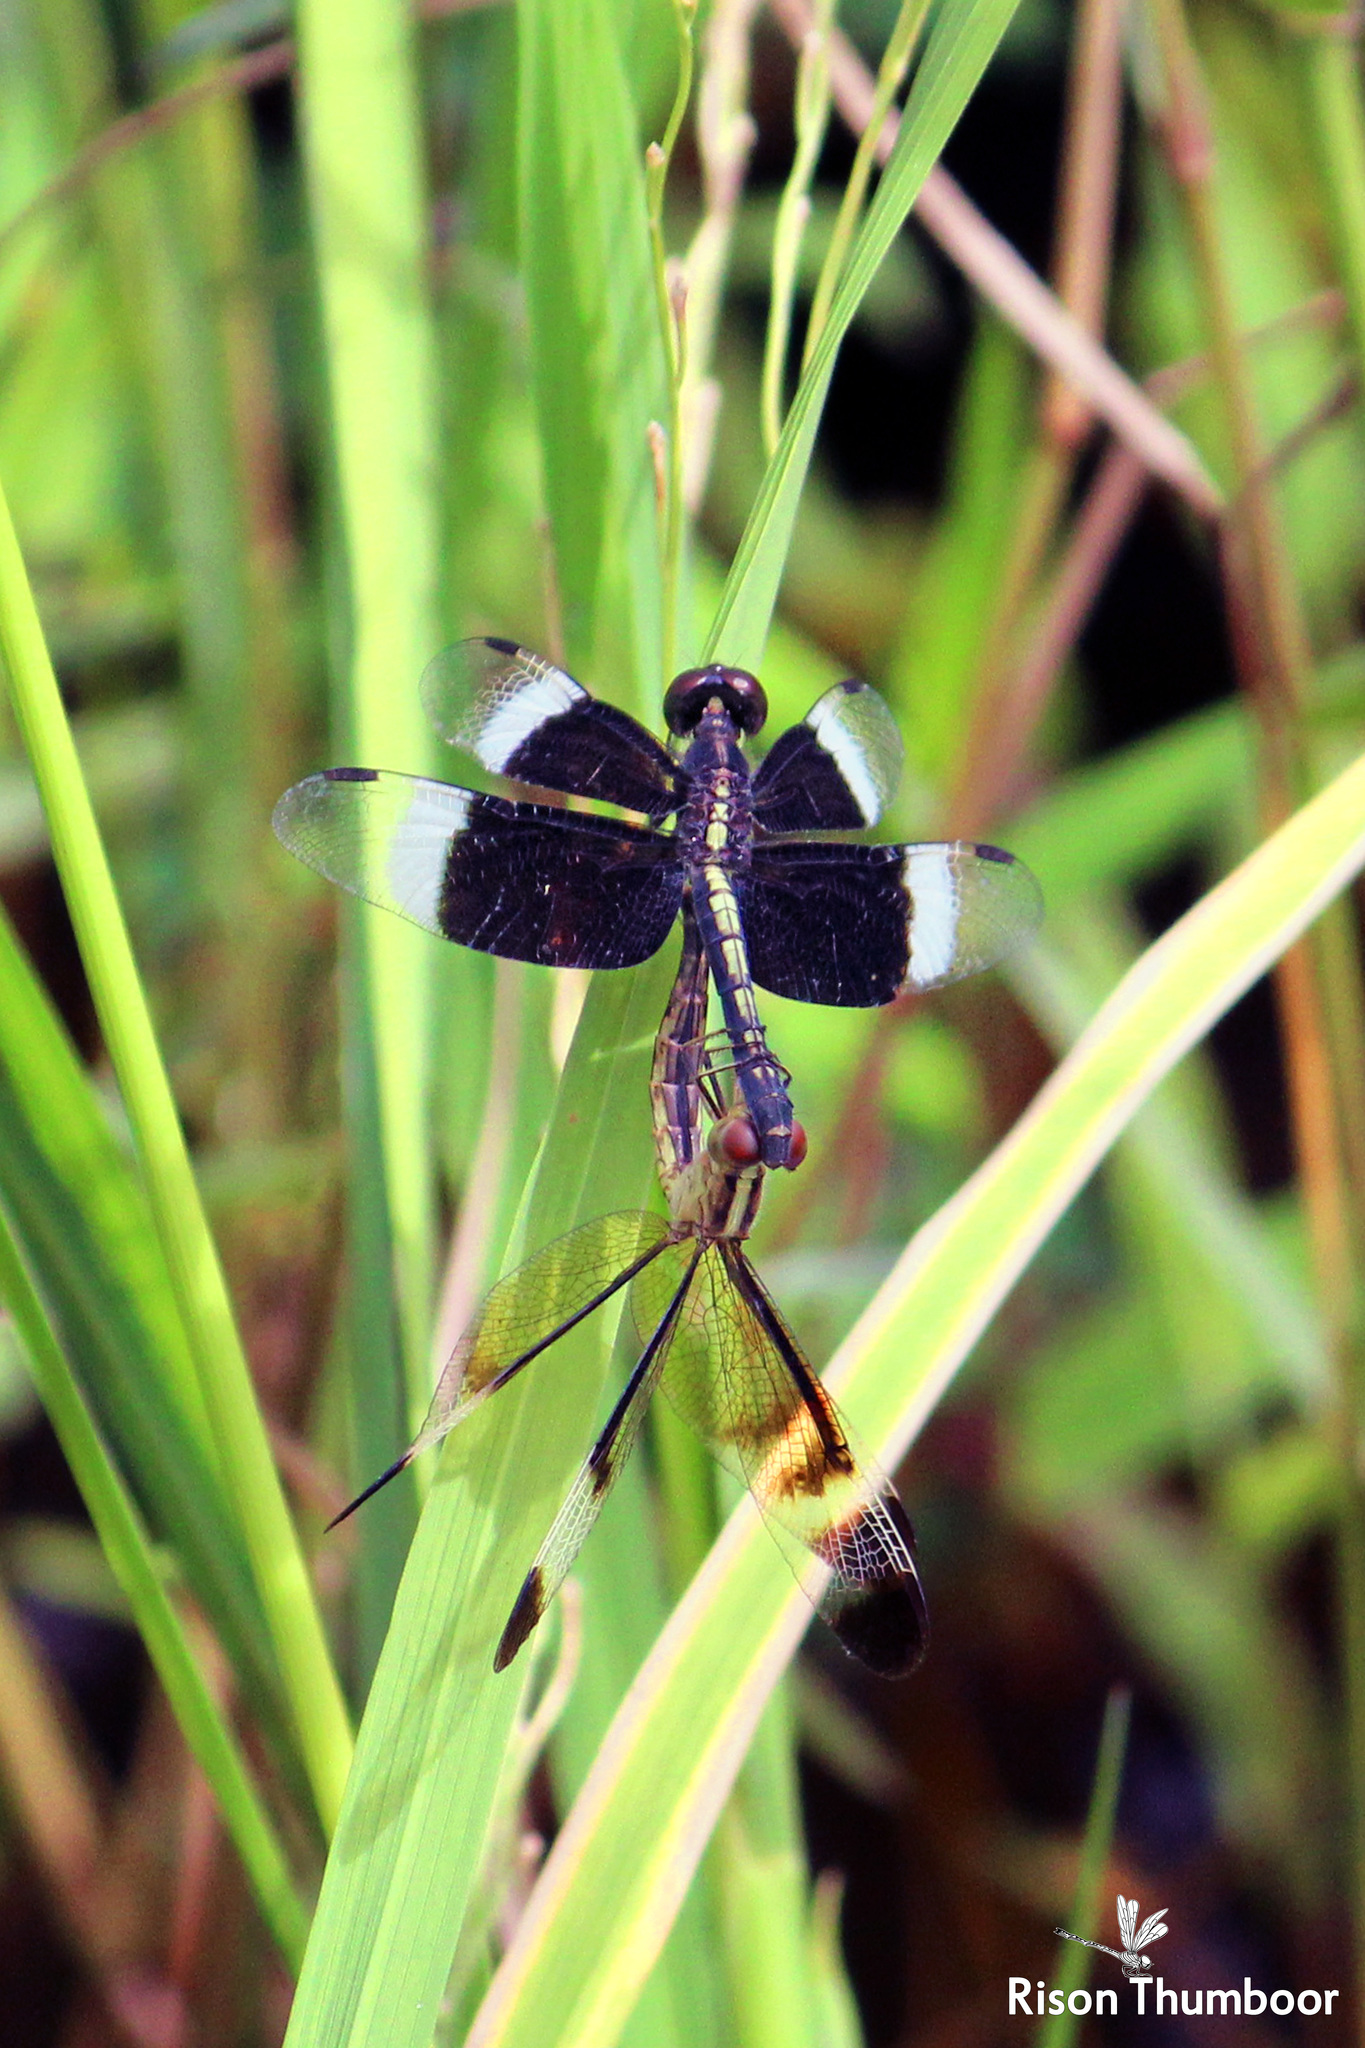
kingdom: Animalia
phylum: Arthropoda
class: Insecta
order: Odonata
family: Libellulidae
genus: Neurothemis
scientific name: Neurothemis tullia
